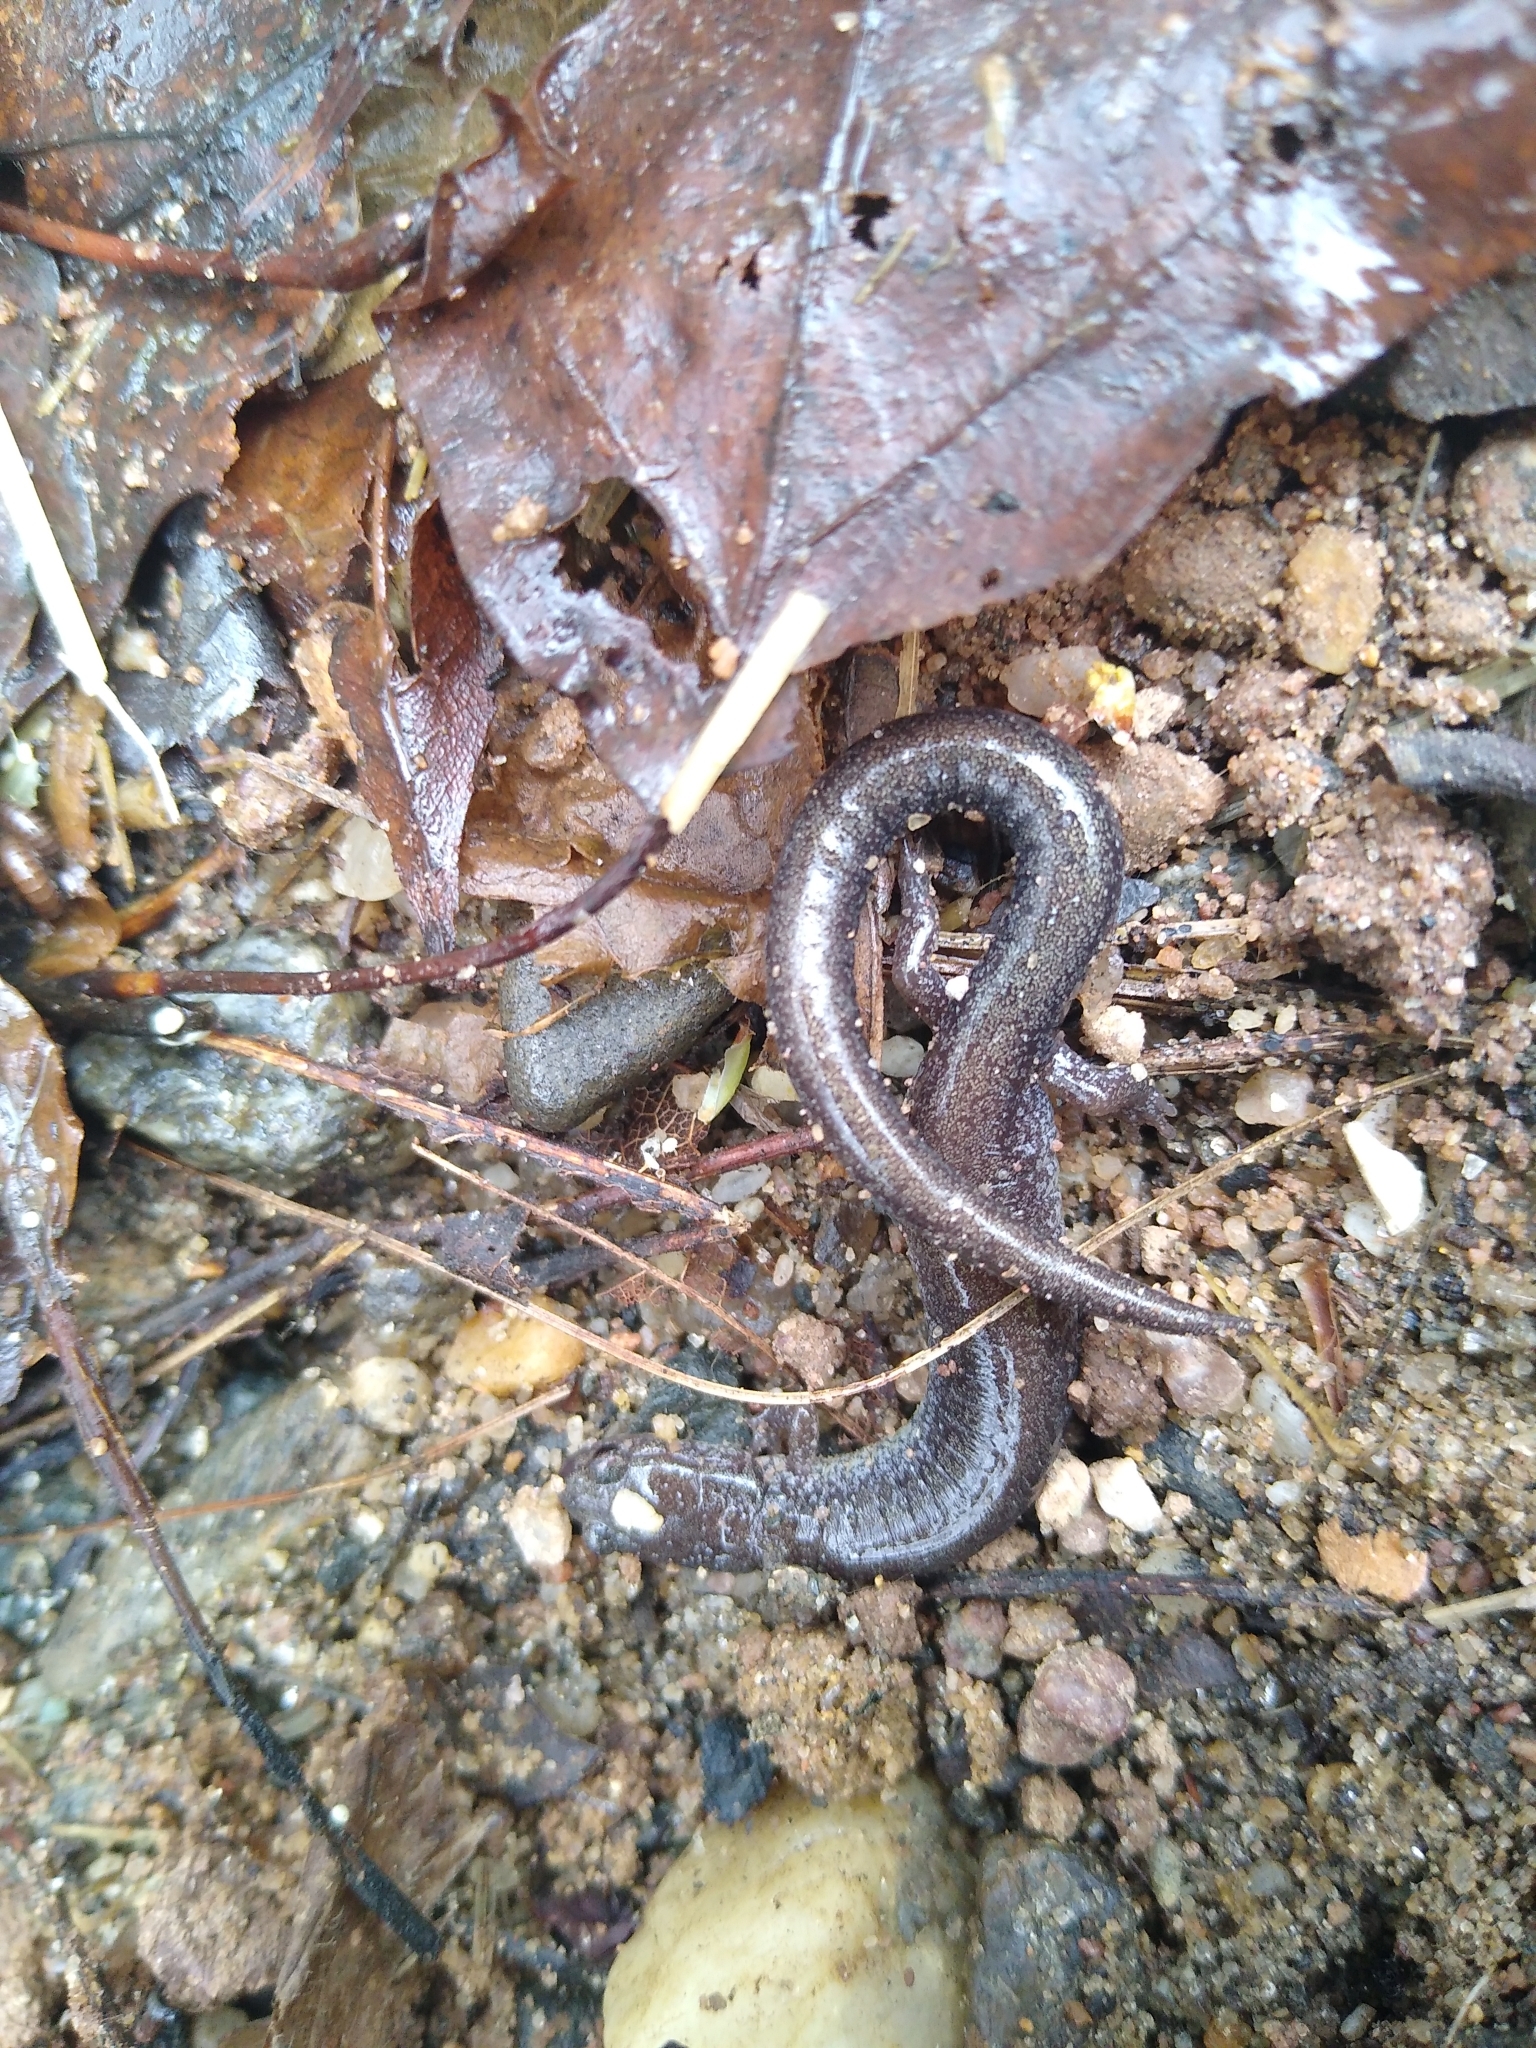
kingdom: Animalia
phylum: Chordata
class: Amphibia
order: Caudata
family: Plethodontidae
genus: Plethodon
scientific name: Plethodon cinereus
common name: Redback salamander
